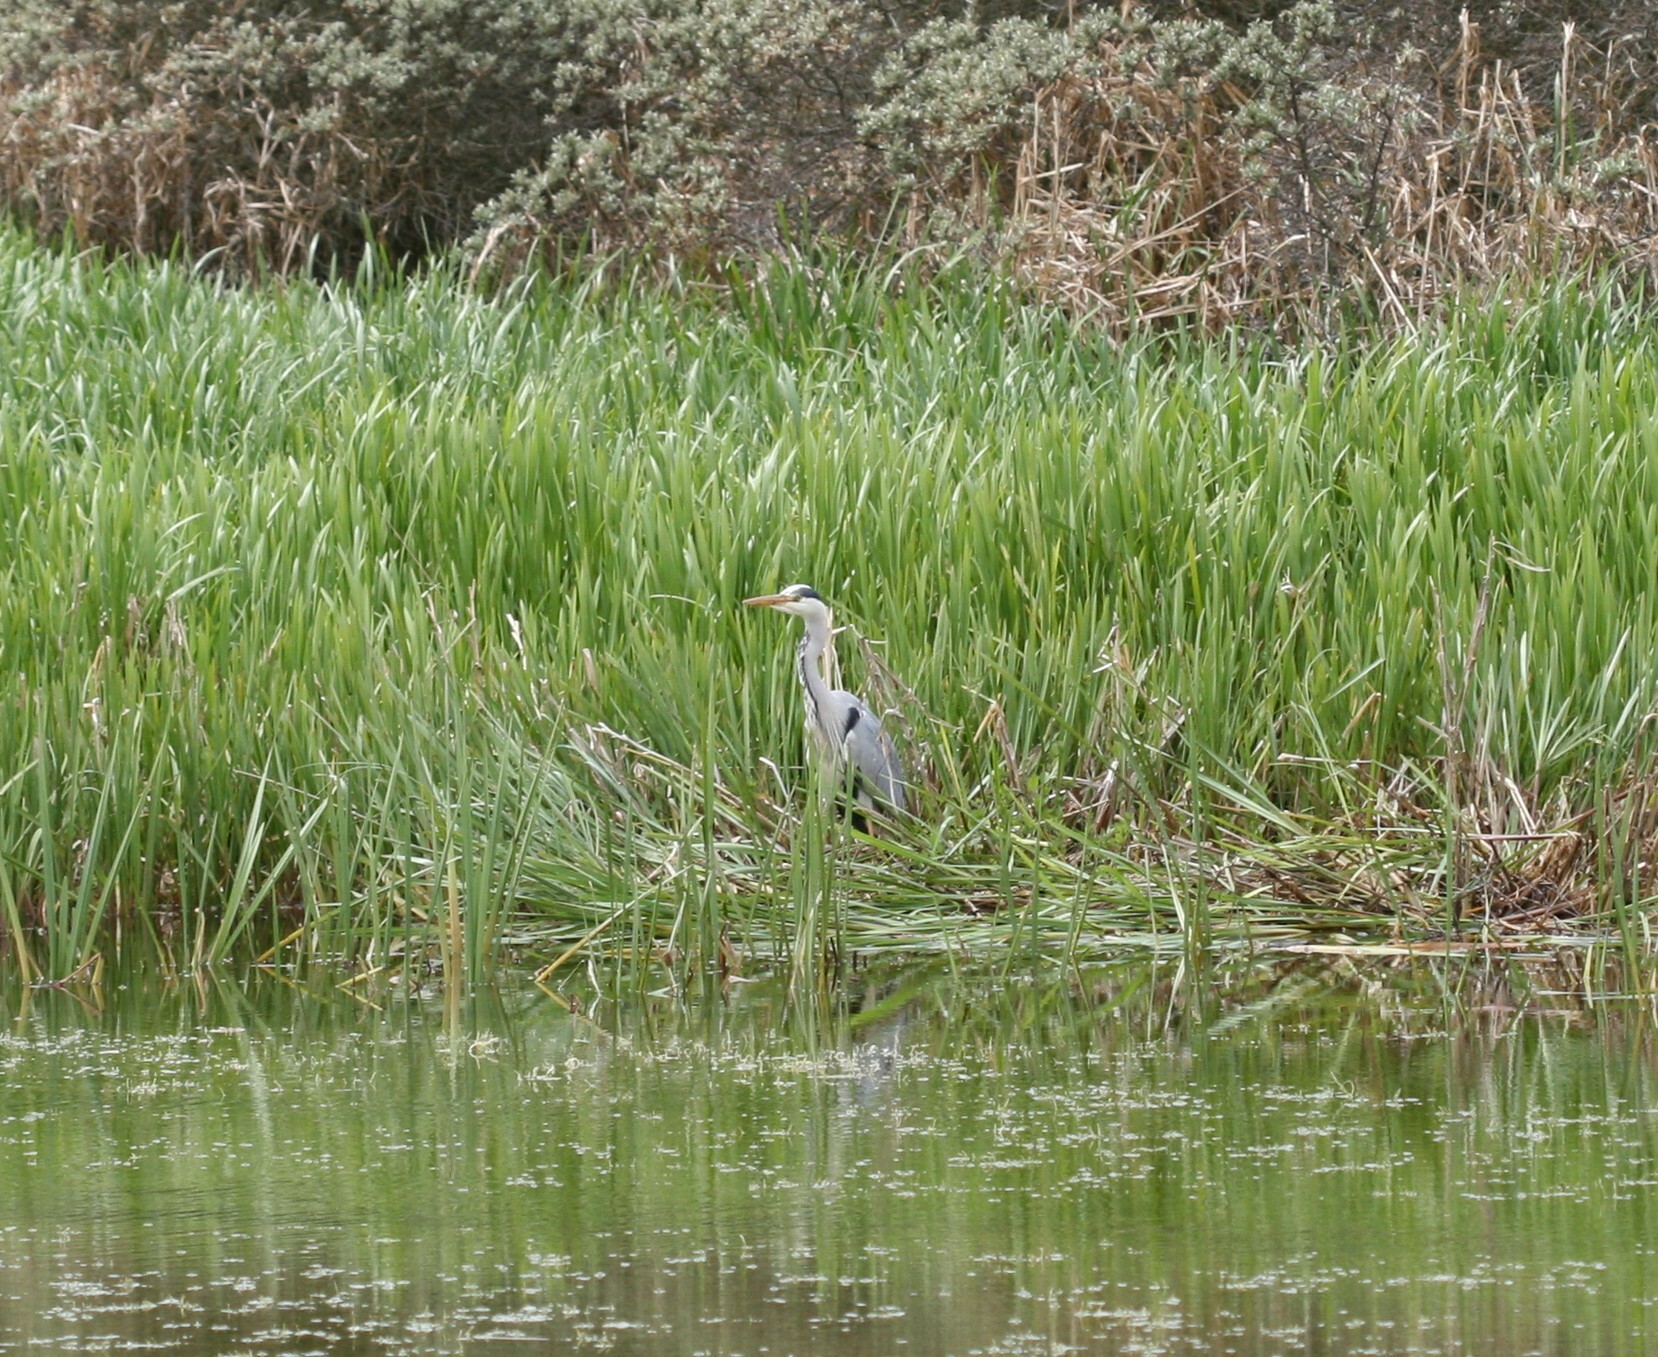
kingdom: Animalia
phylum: Chordata
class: Aves
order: Pelecaniformes
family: Ardeidae
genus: Ardea
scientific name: Ardea cinerea
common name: Grey heron
